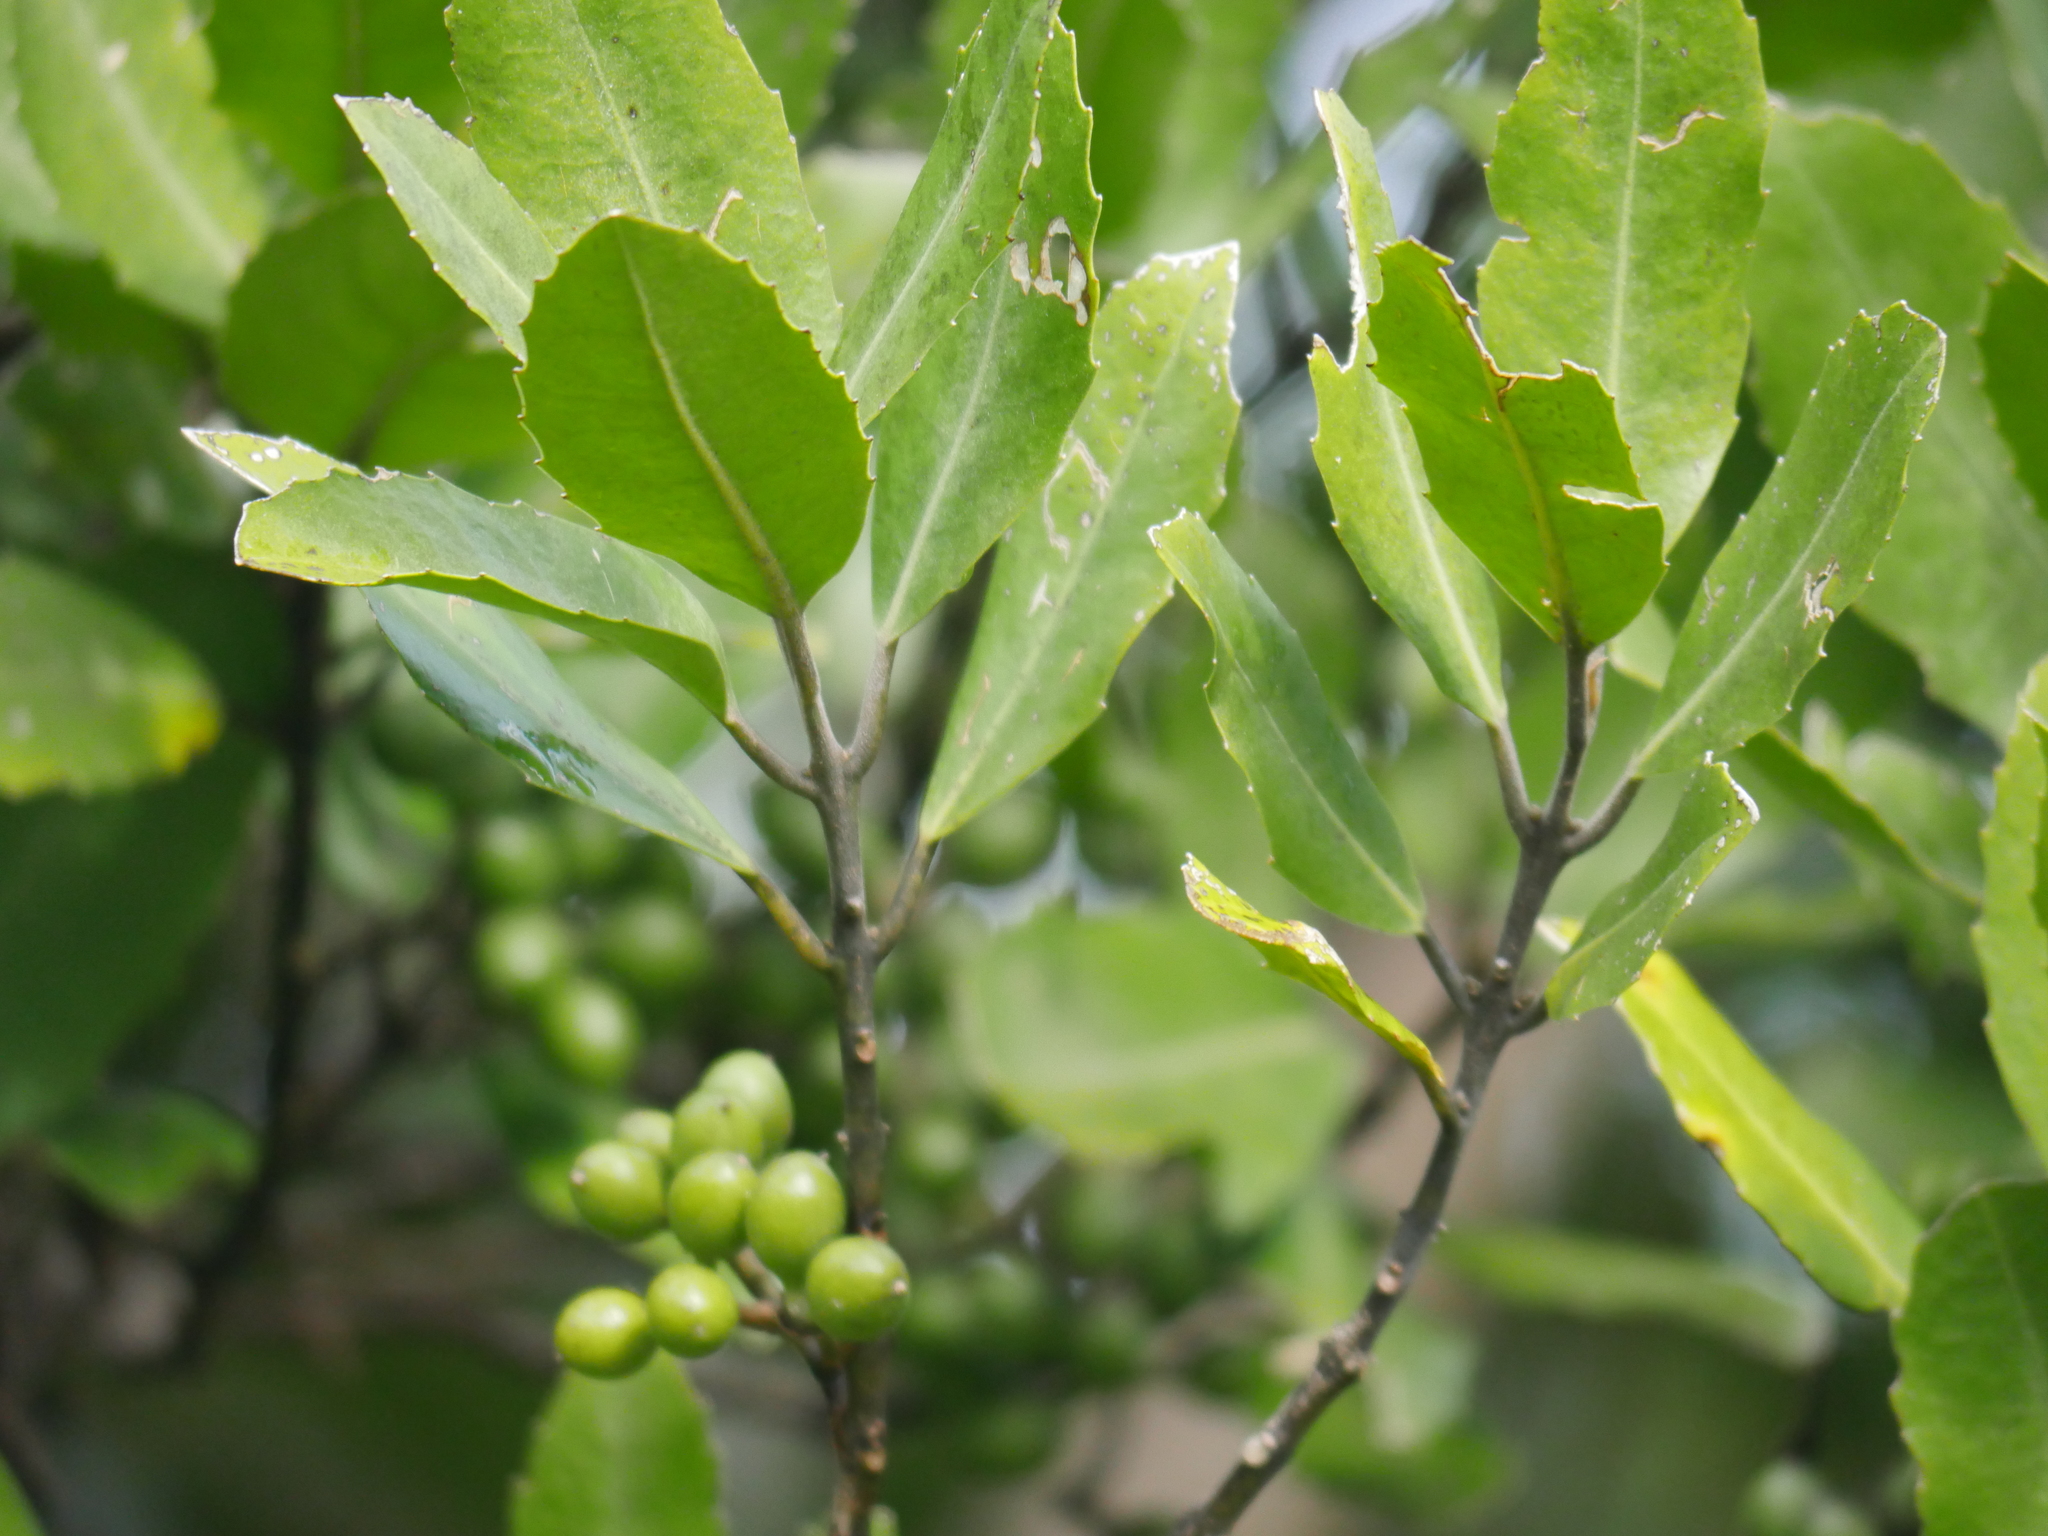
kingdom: Plantae
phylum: Tracheophyta
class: Magnoliopsida
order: Laurales
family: Monimiaceae
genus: Hedycarya
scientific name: Hedycarya arborea
